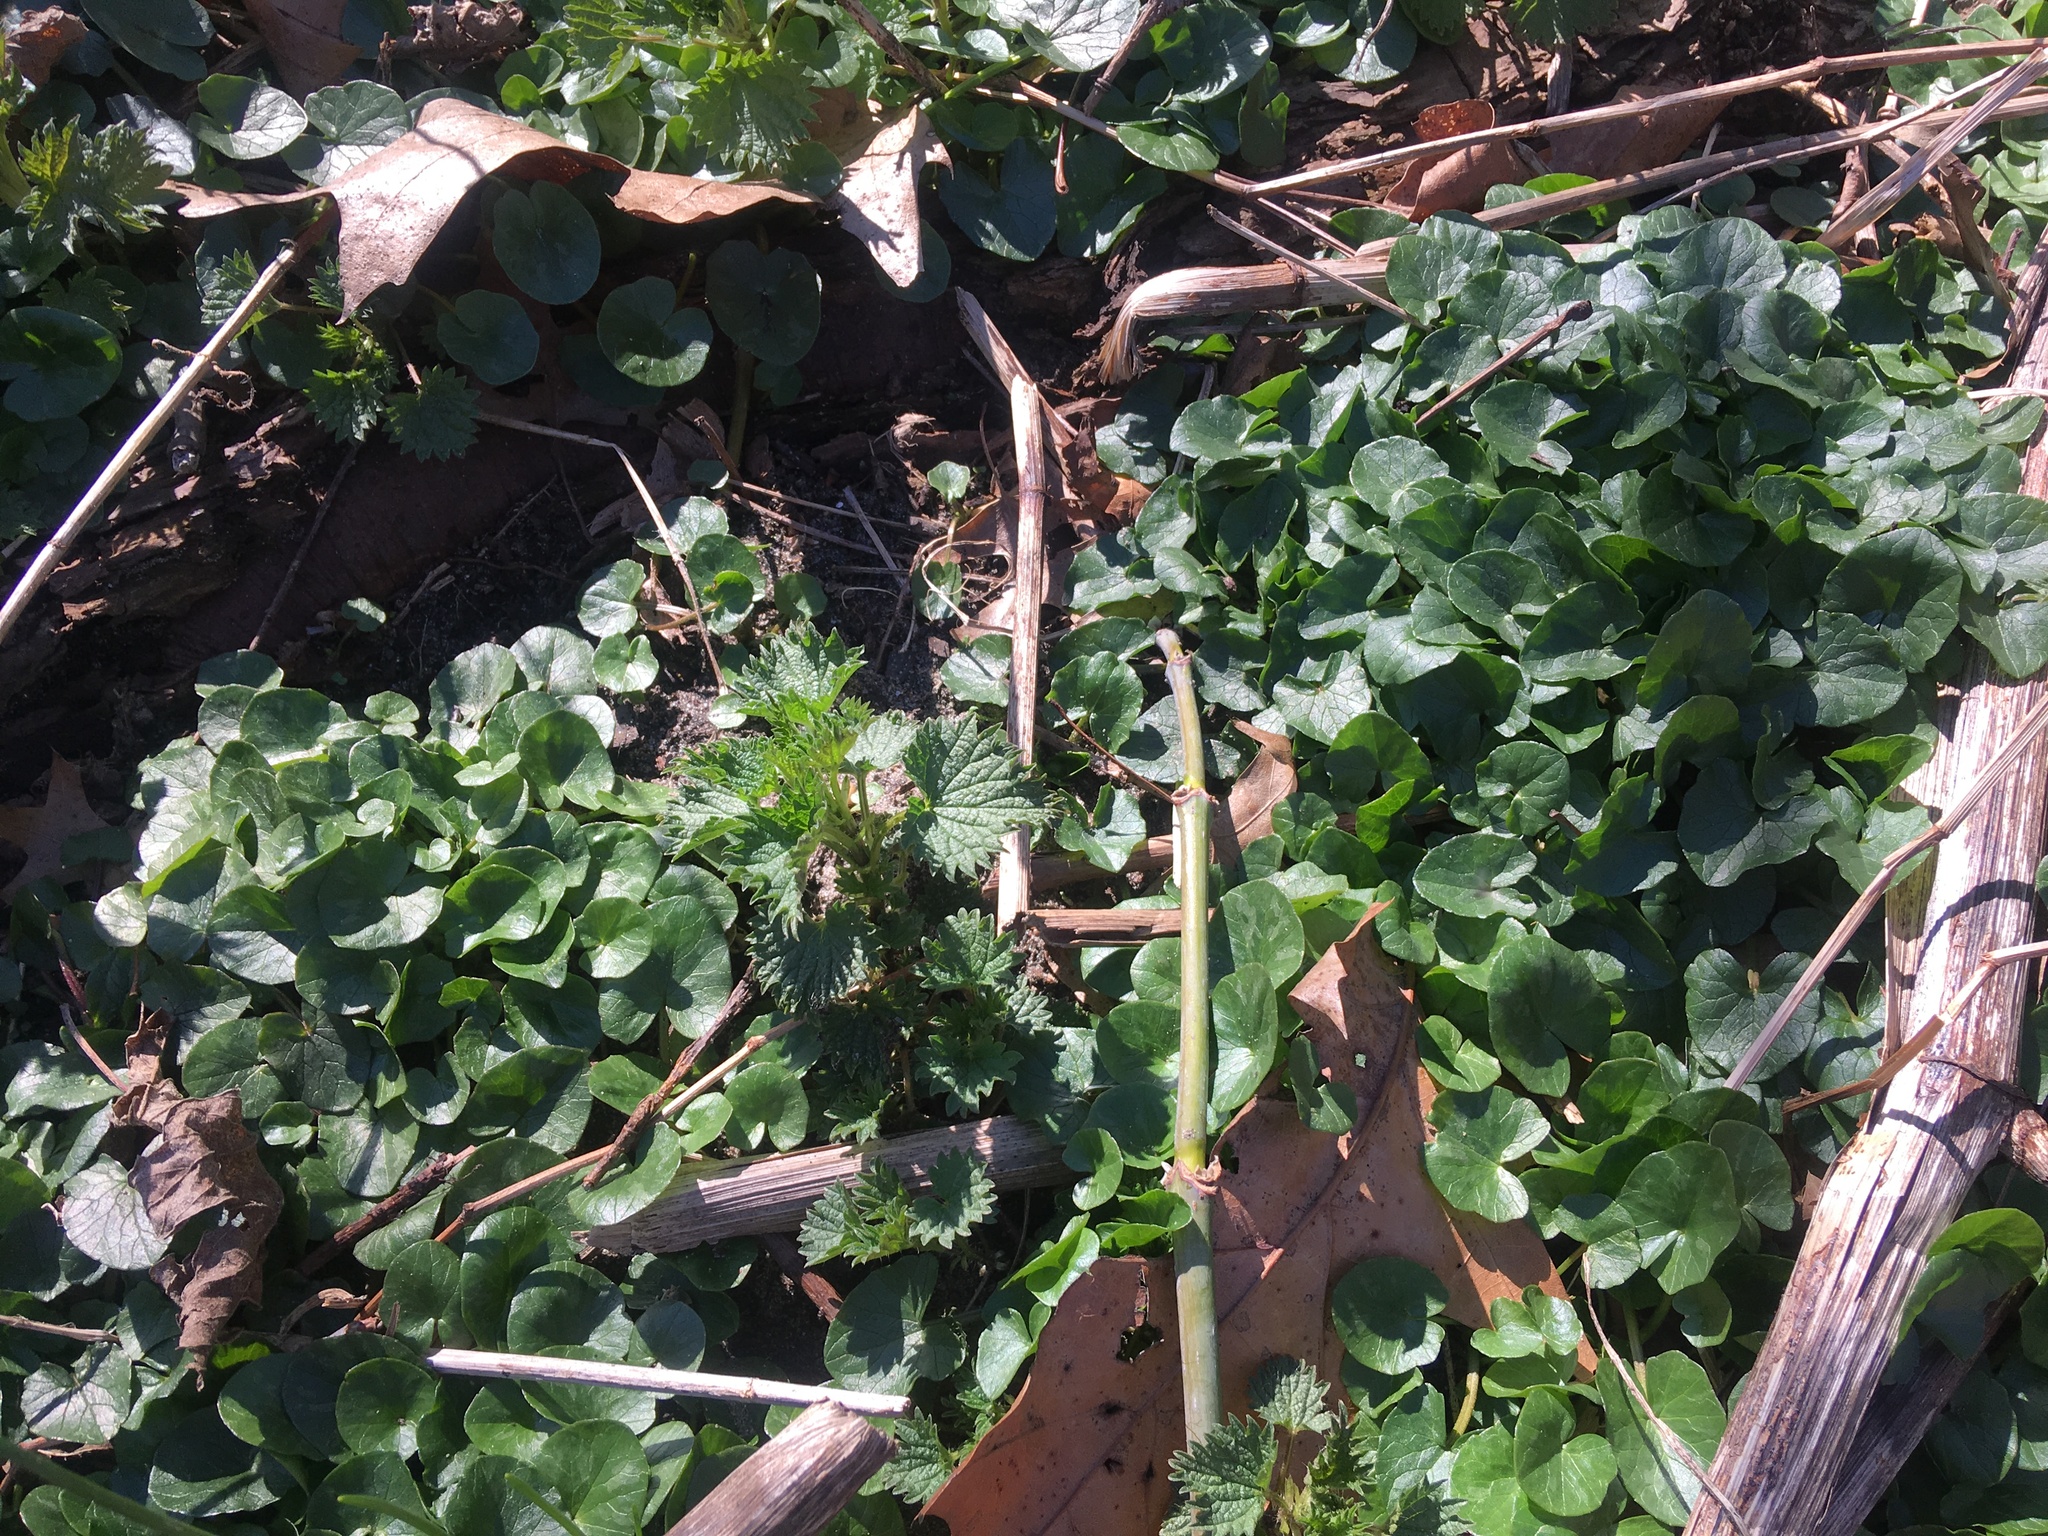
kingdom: Plantae
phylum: Tracheophyta
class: Magnoliopsida
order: Ranunculales
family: Ranunculaceae
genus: Ficaria
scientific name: Ficaria verna
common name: Lesser celandine
